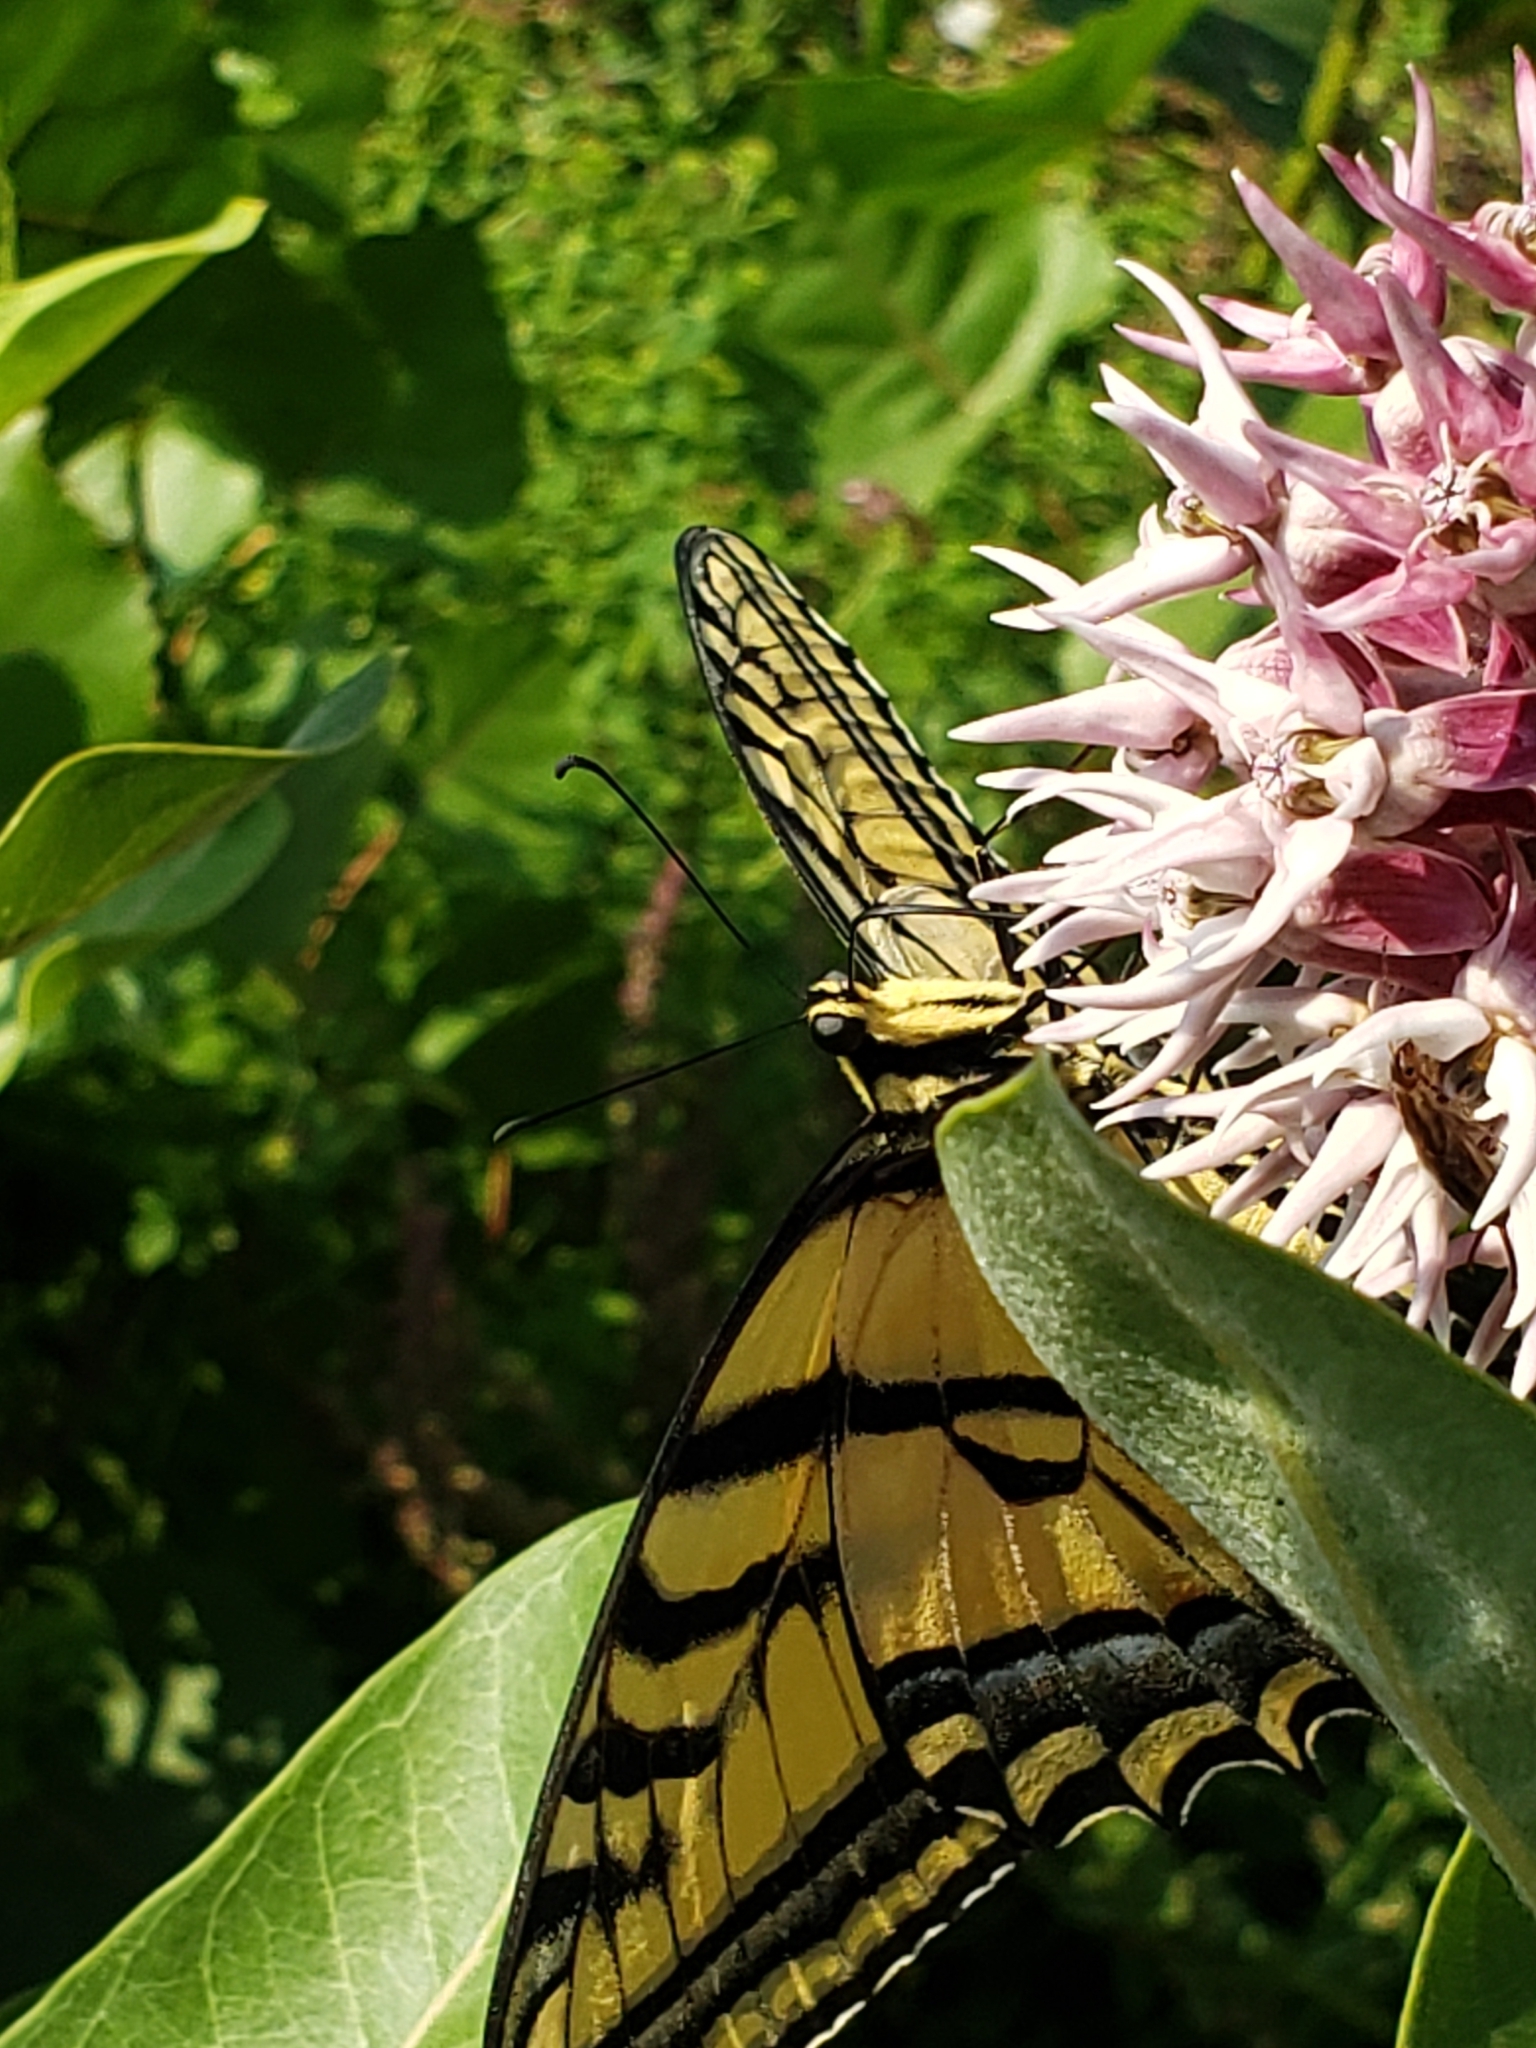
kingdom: Animalia
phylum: Arthropoda
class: Insecta
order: Lepidoptera
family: Papilionidae
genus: Papilio
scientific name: Papilio multicaudata
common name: Two-tailed tiger swallowtail
